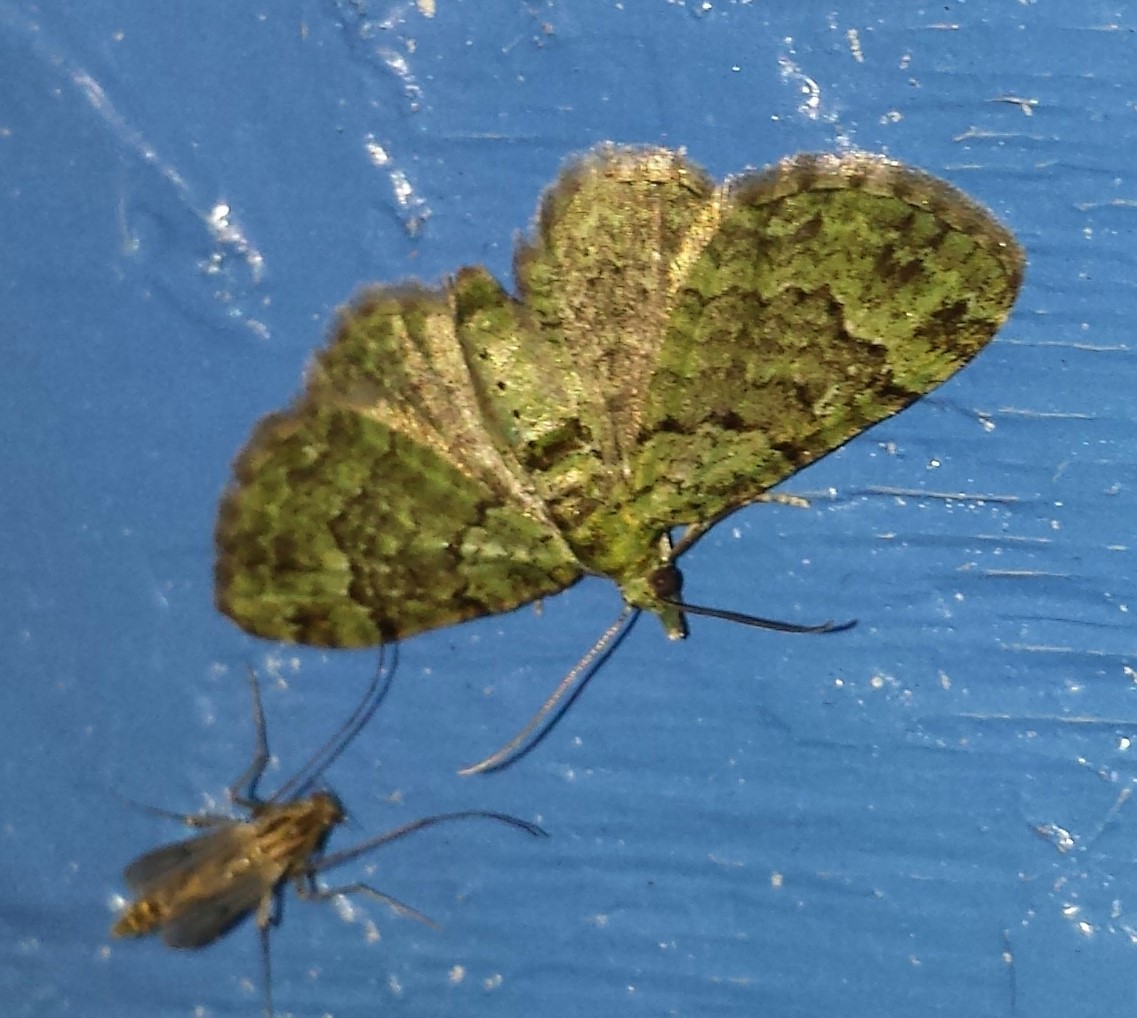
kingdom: Animalia
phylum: Arthropoda
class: Insecta
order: Lepidoptera
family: Geometridae
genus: Pasiphila
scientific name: Pasiphila rectangulata
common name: Green pug
